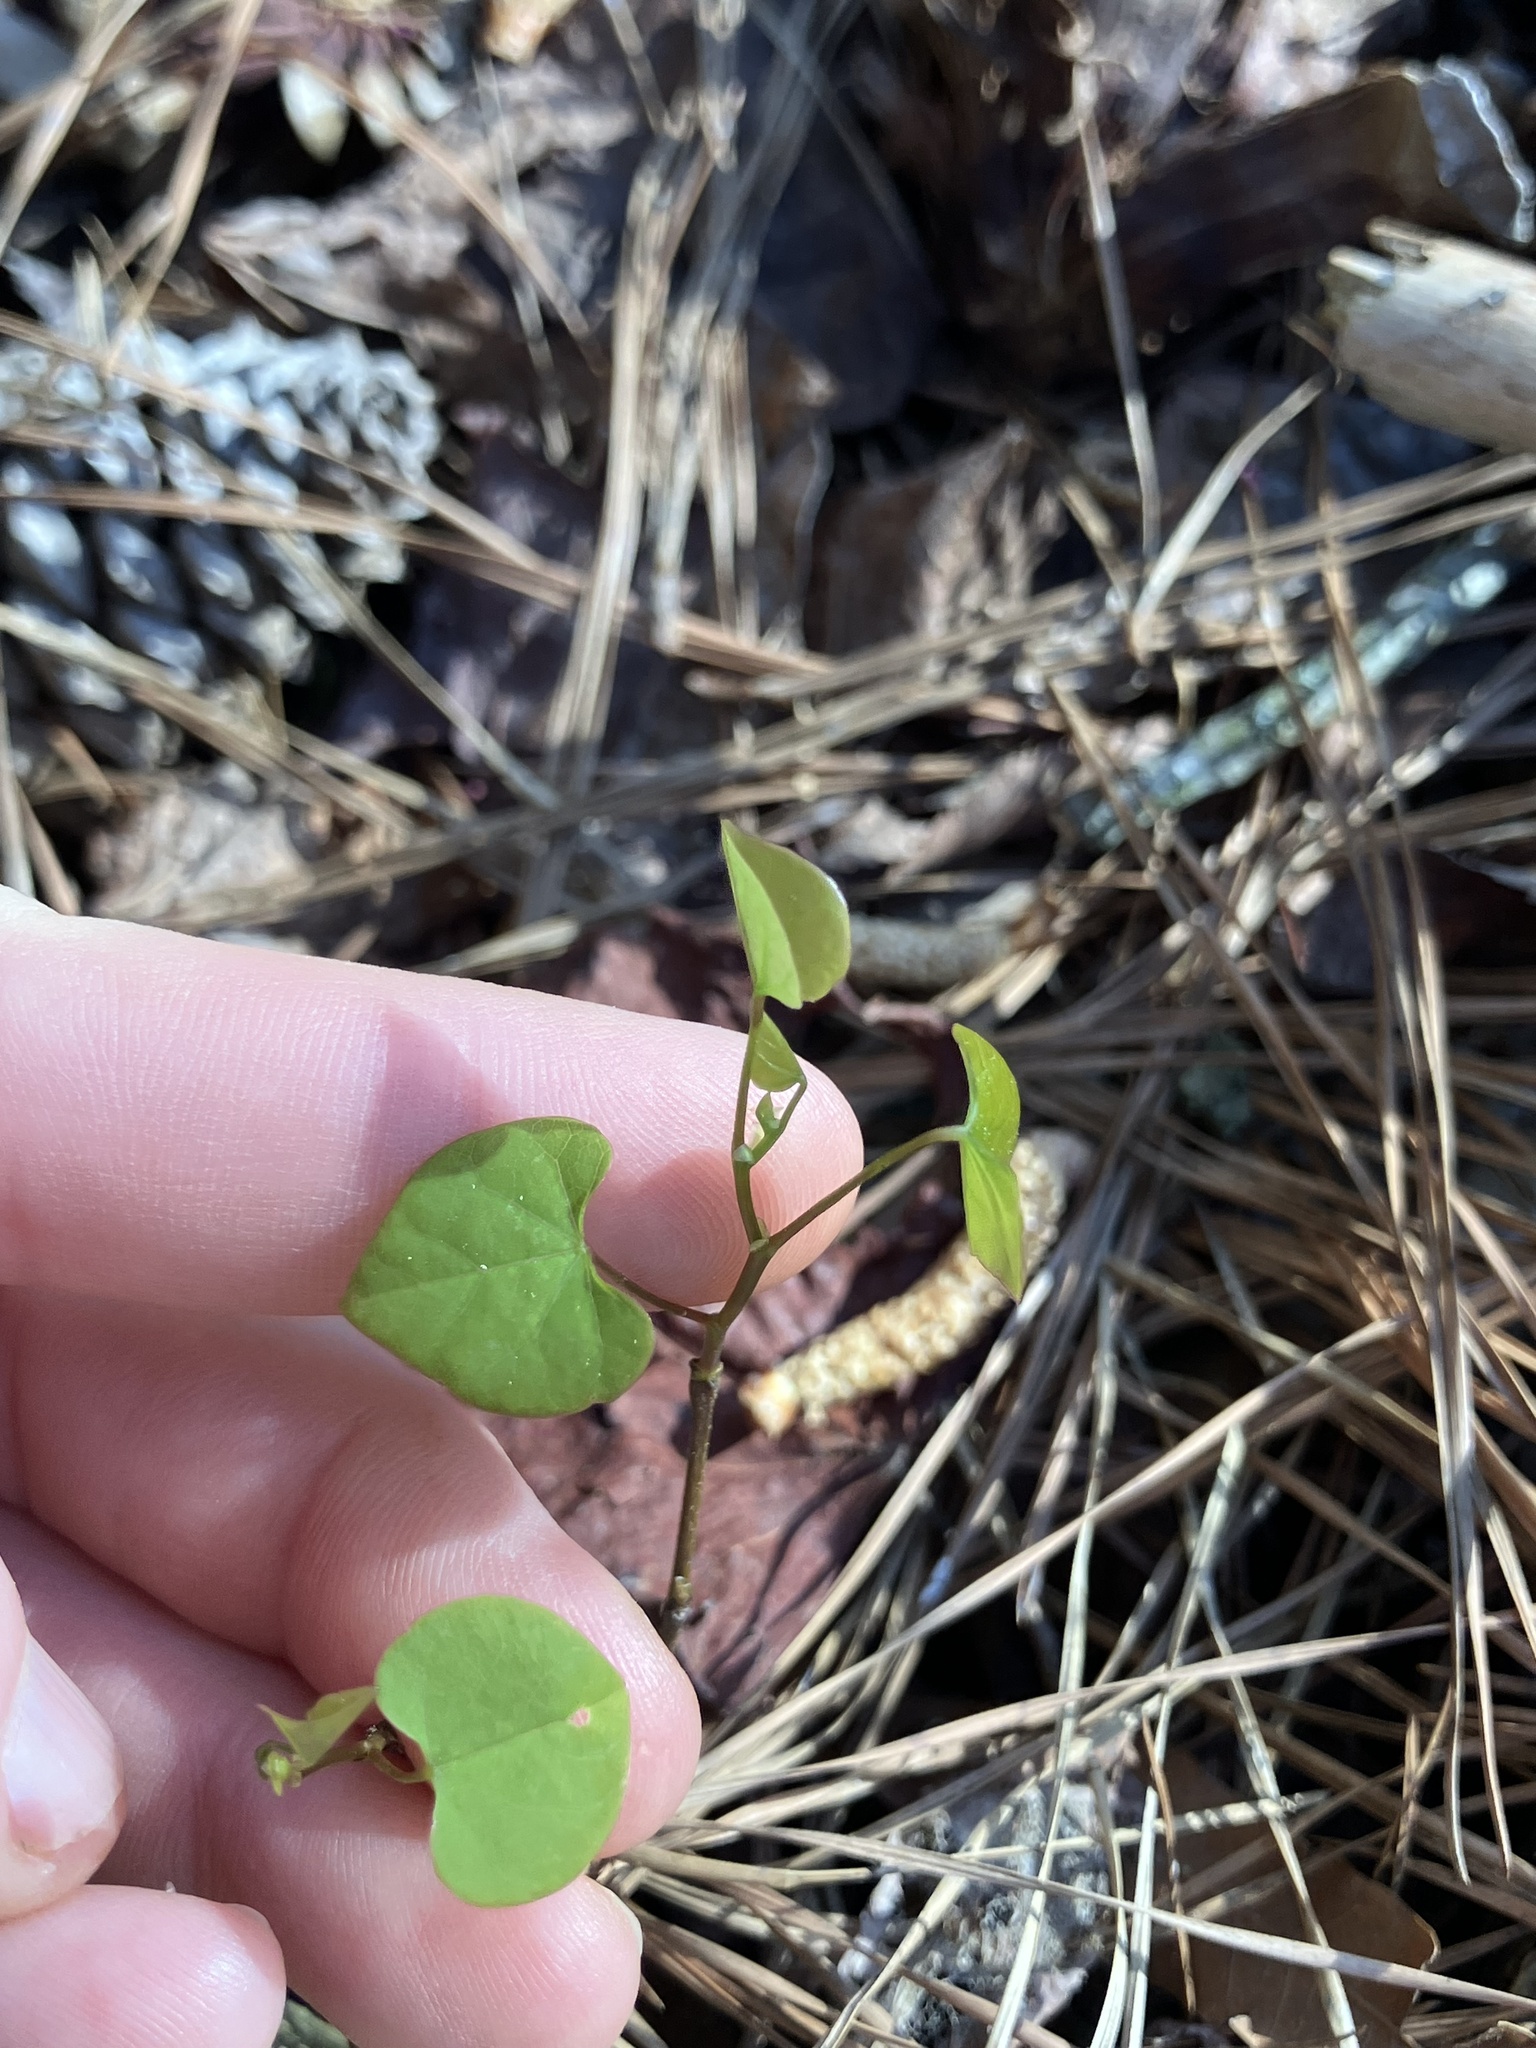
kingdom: Plantae
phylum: Tracheophyta
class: Magnoliopsida
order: Fabales
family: Fabaceae
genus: Cercis
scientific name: Cercis canadensis
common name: Eastern redbud
